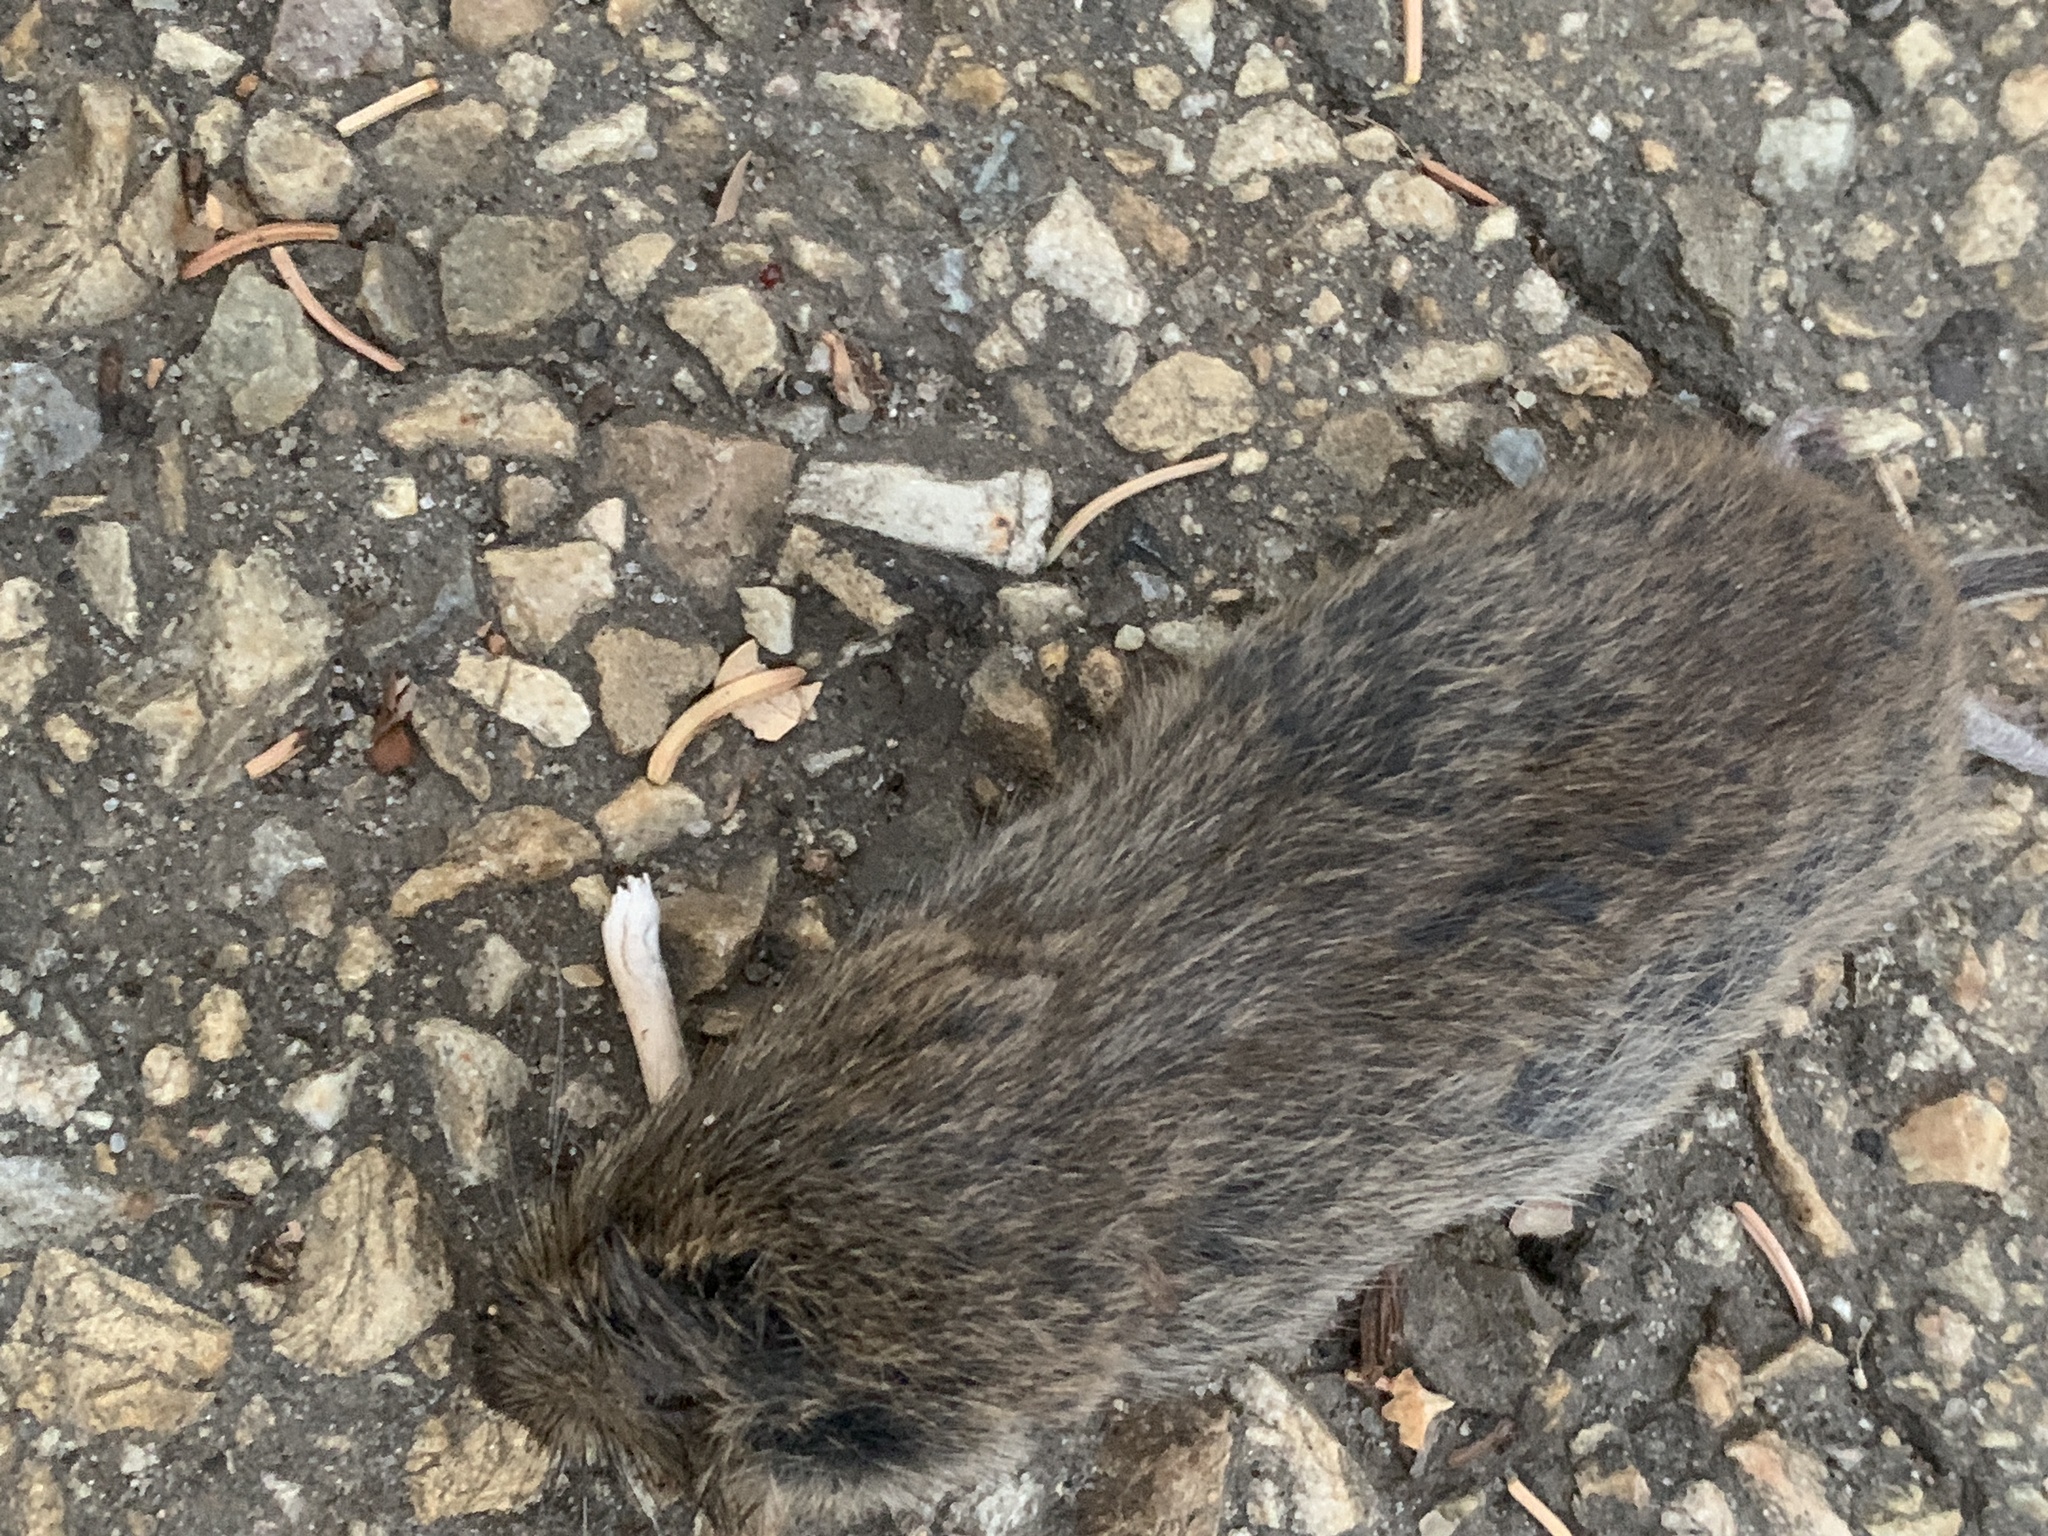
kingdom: Animalia
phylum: Chordata
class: Mammalia
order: Rodentia
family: Cricetidae
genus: Microtus
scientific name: Microtus pennsylvanicus
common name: Meadow vole
